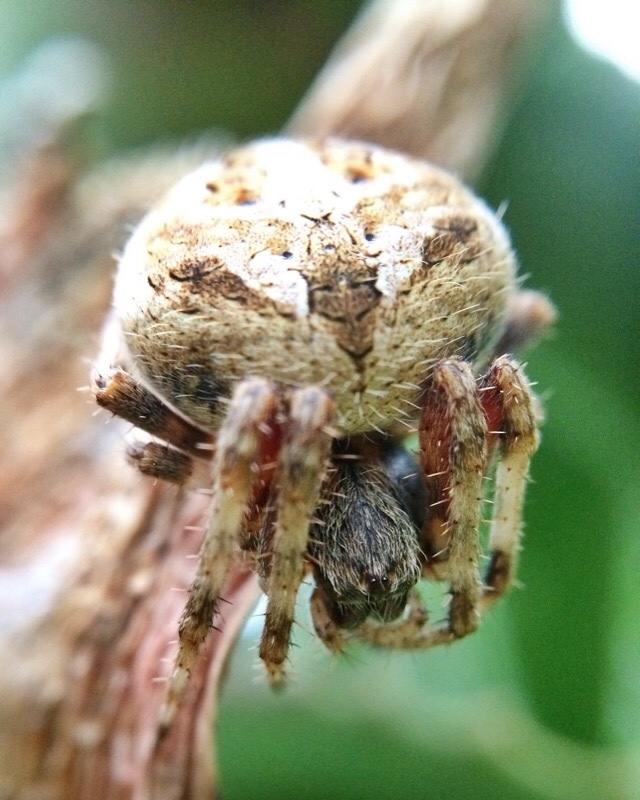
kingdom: Animalia
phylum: Arthropoda
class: Arachnida
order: Araneae
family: Araneidae
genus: Neoscona
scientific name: Neoscona blondeli
